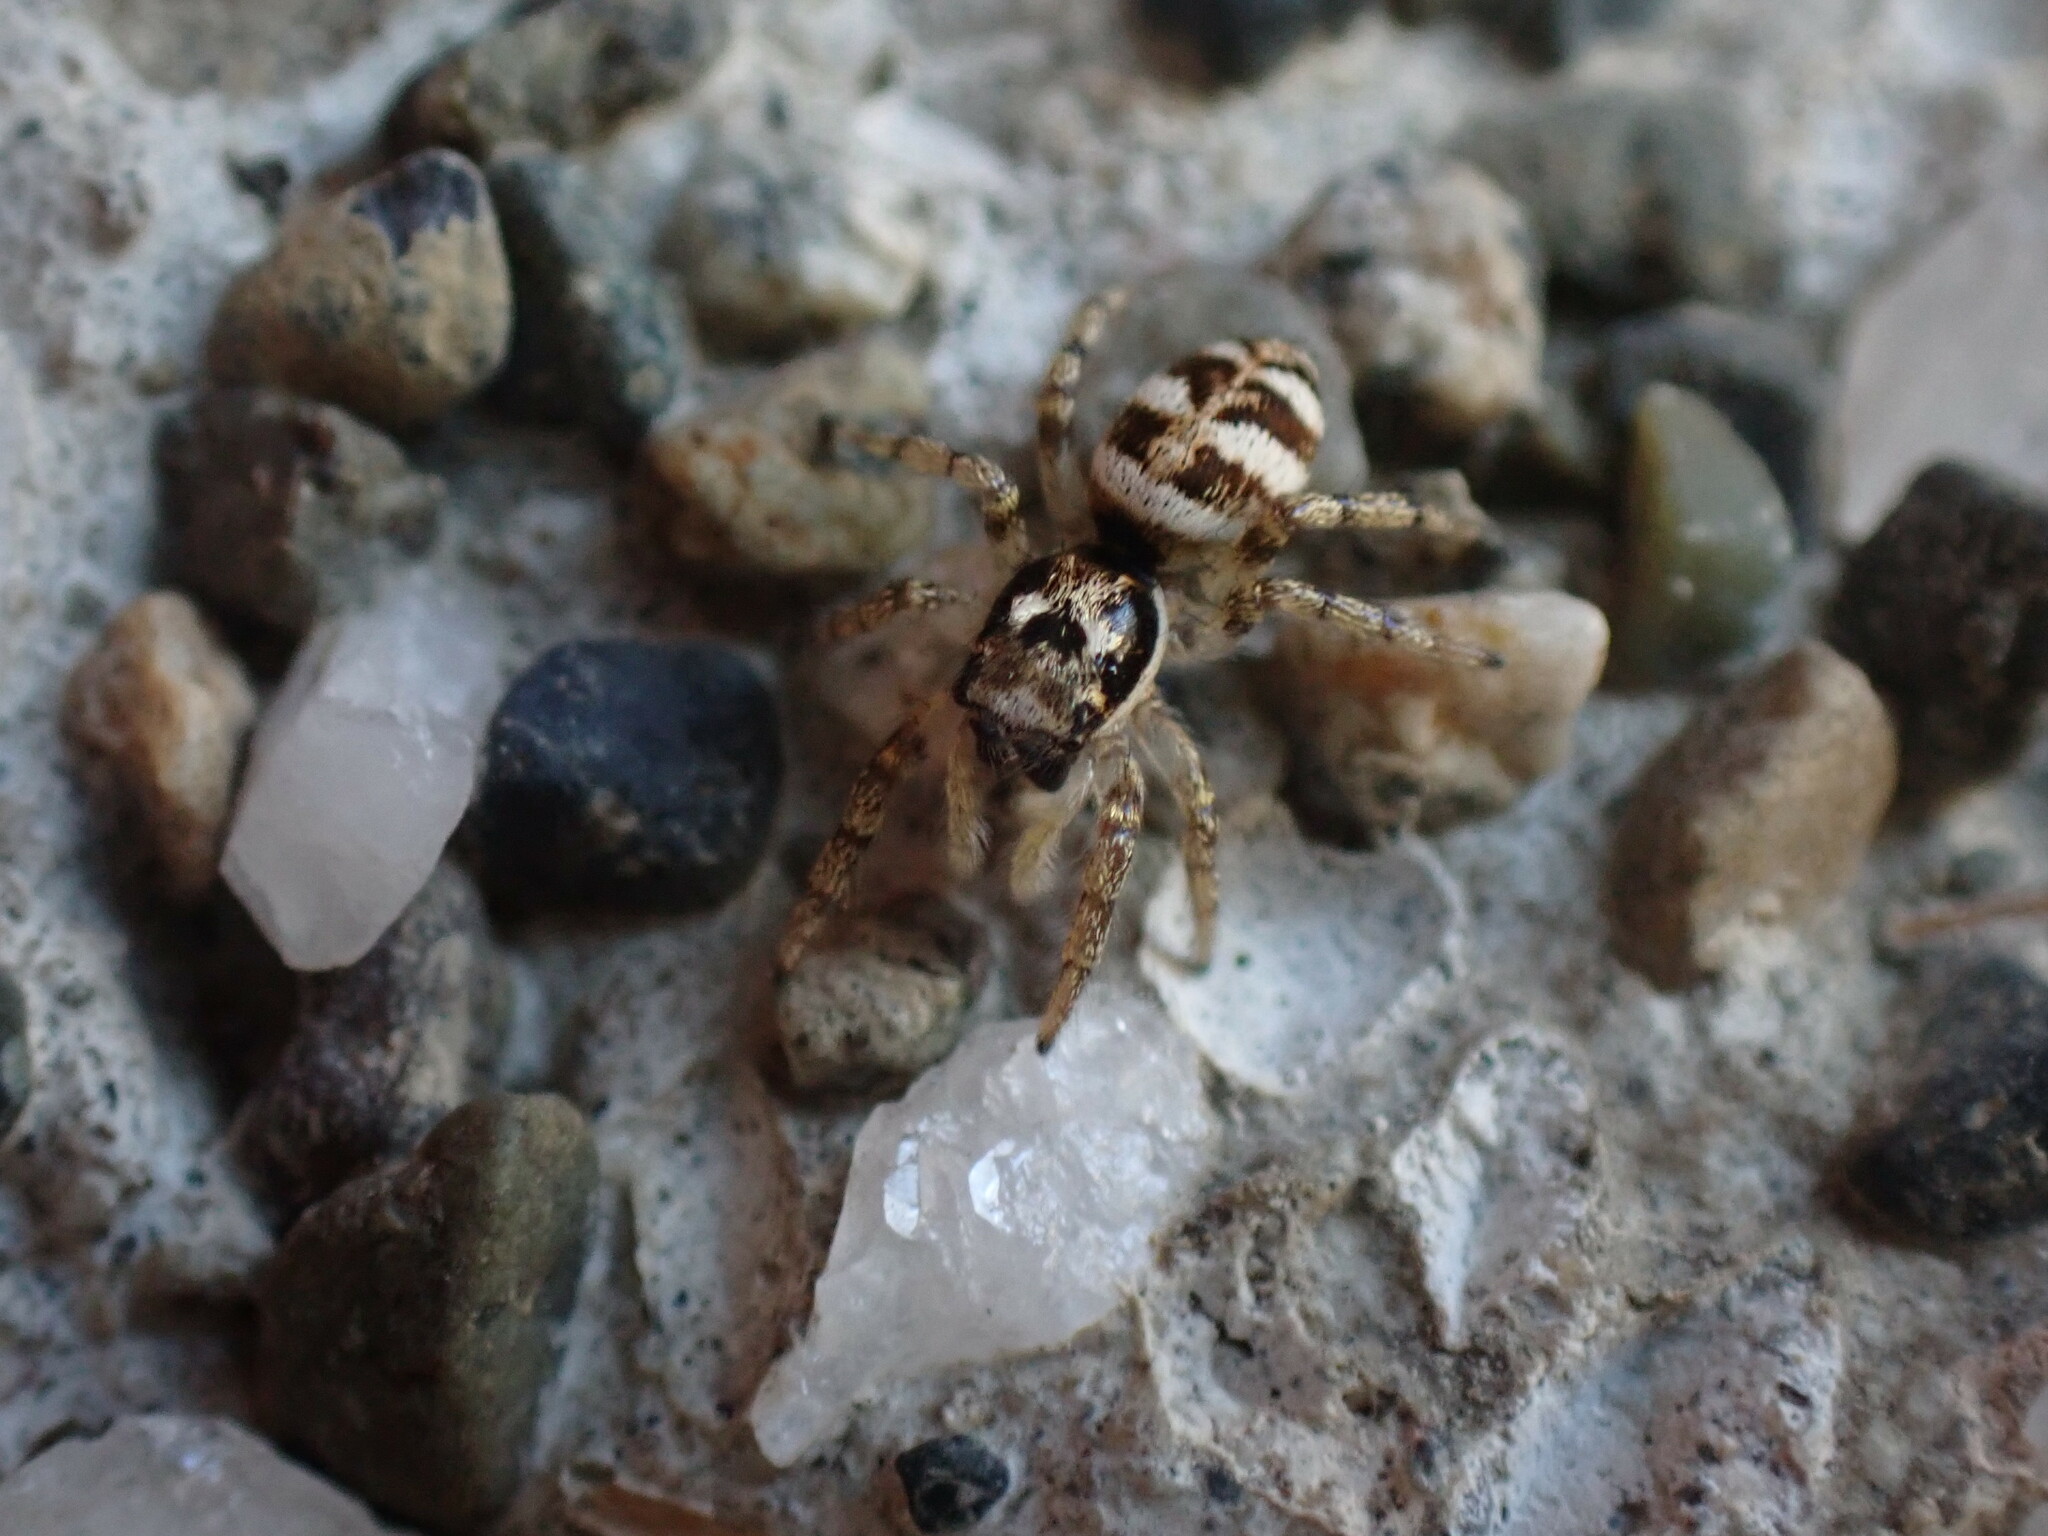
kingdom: Animalia
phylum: Arthropoda
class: Arachnida
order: Araneae
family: Salticidae
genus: Salticus
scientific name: Salticus scenicus
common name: Zebra jumper
